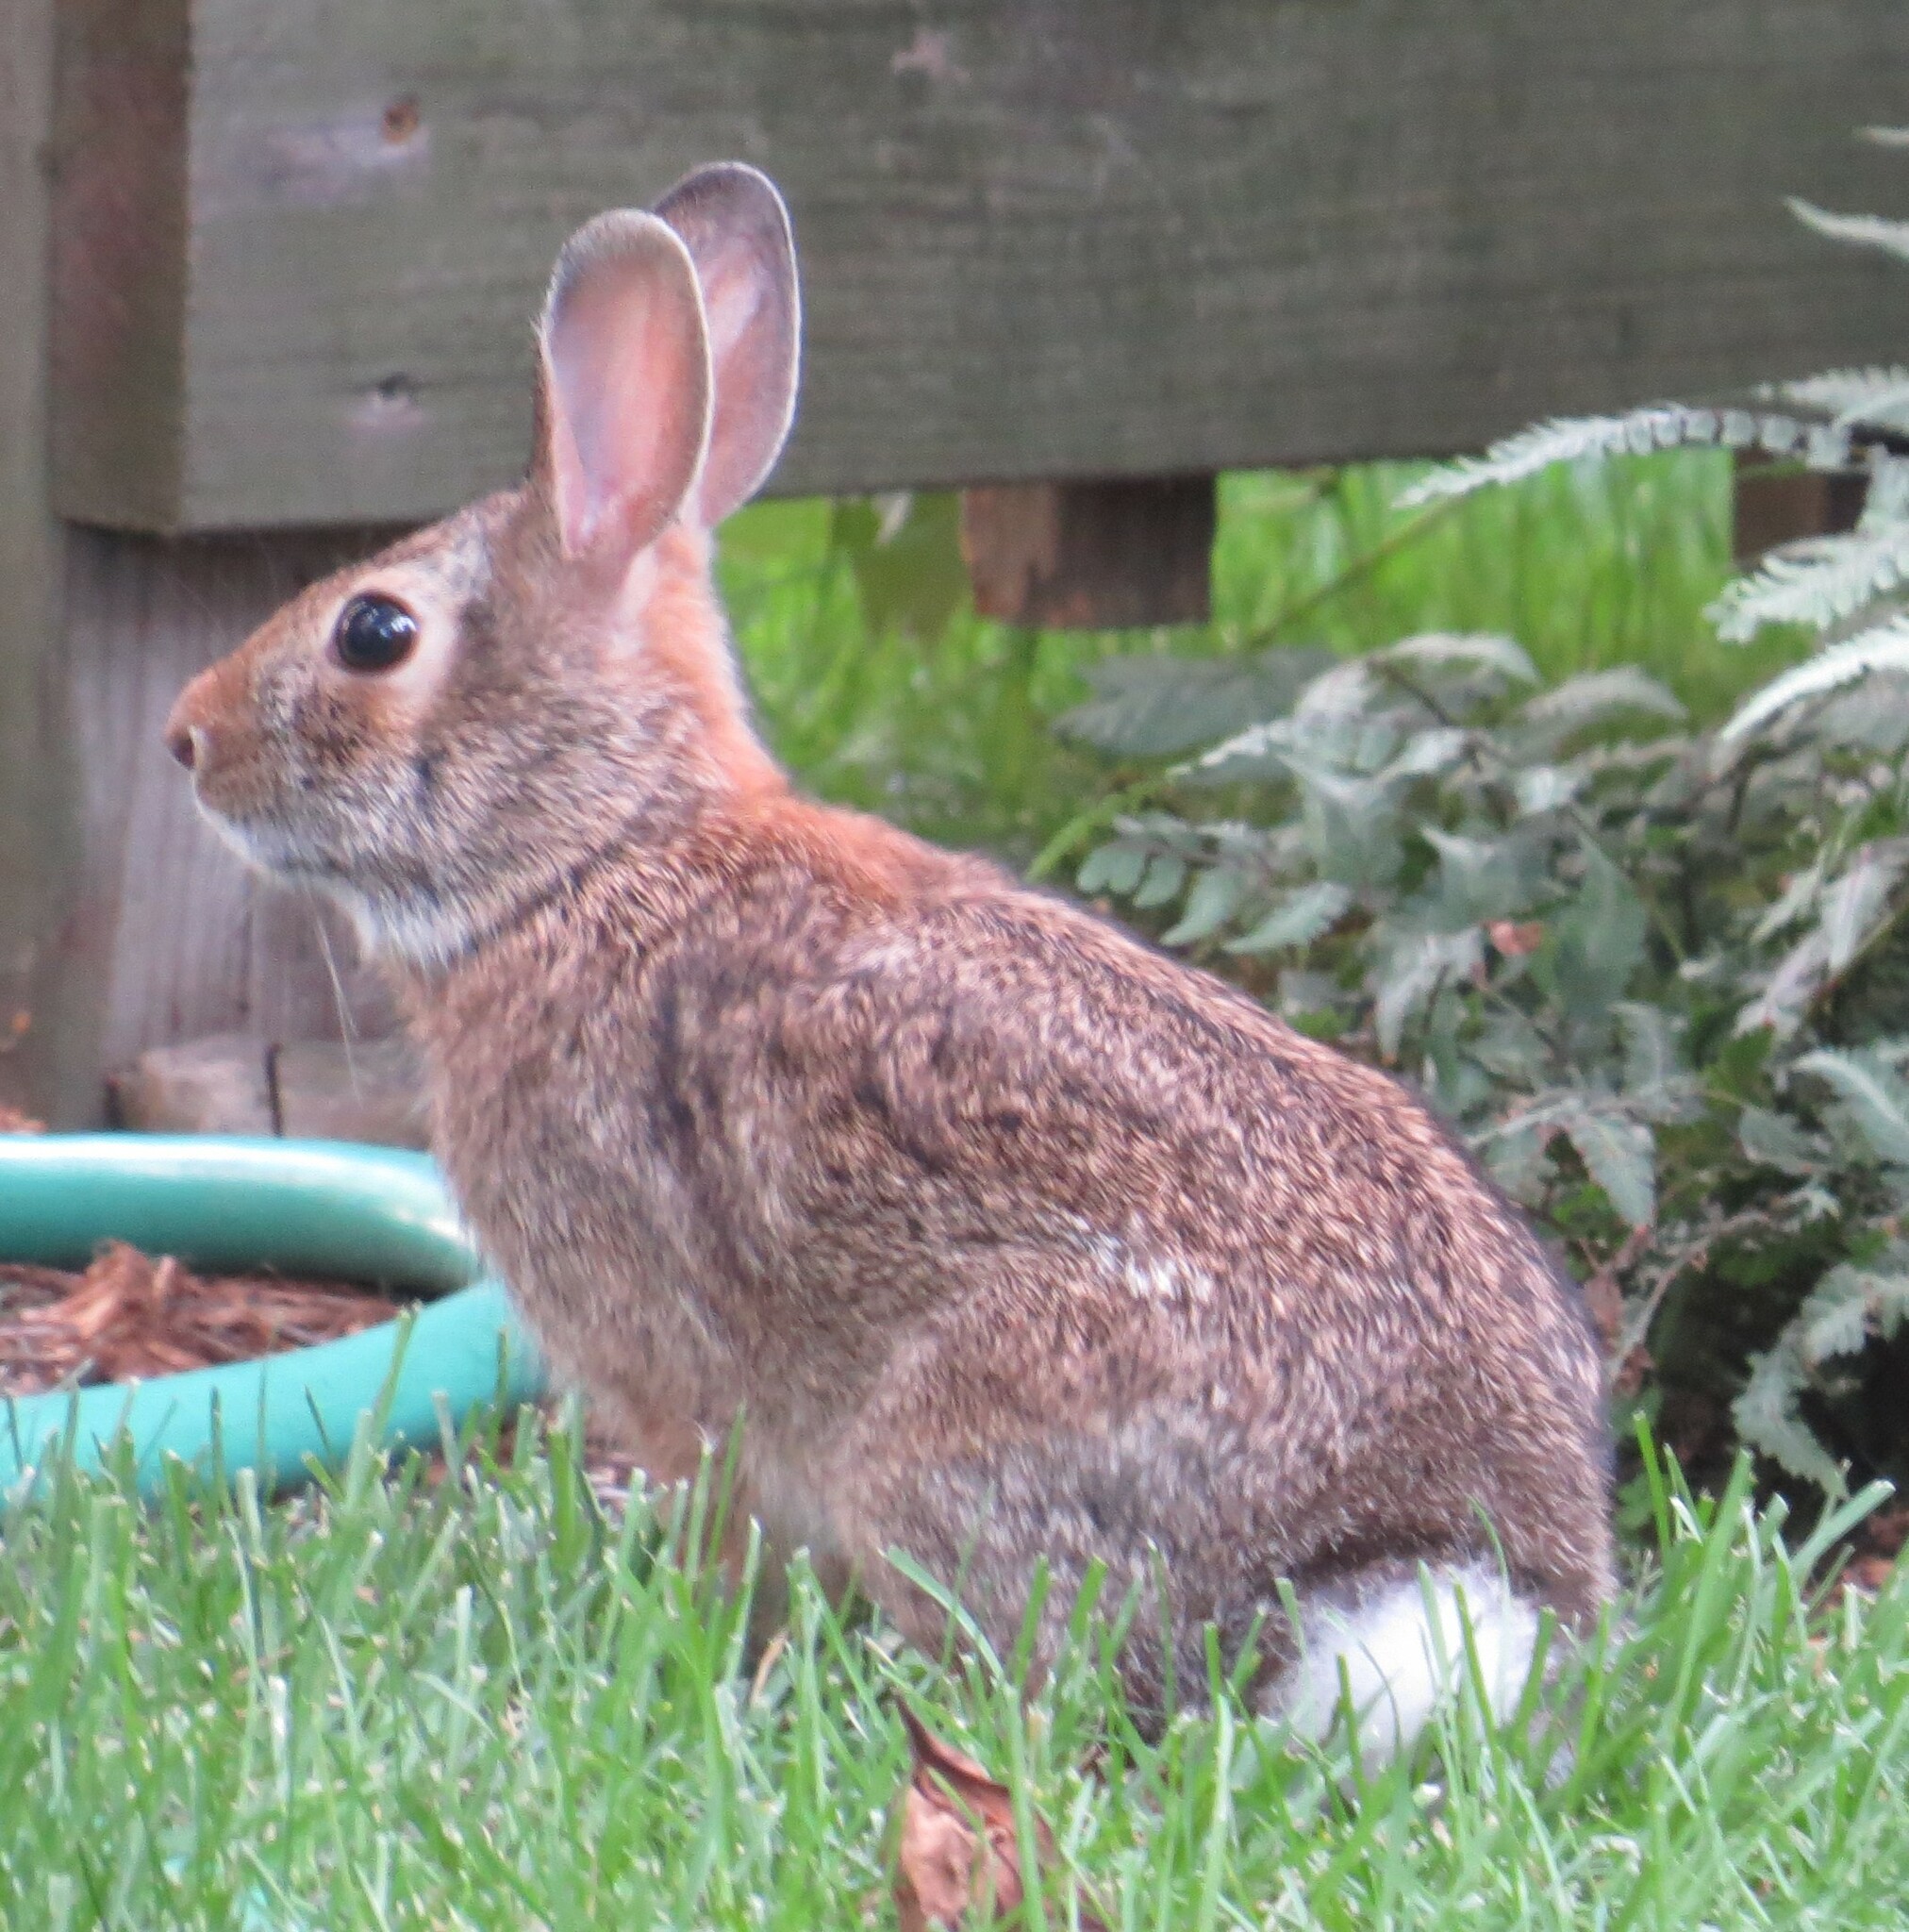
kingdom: Animalia
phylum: Chordata
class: Mammalia
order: Lagomorpha
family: Leporidae
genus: Sylvilagus
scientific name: Sylvilagus floridanus
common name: Eastern cottontail
